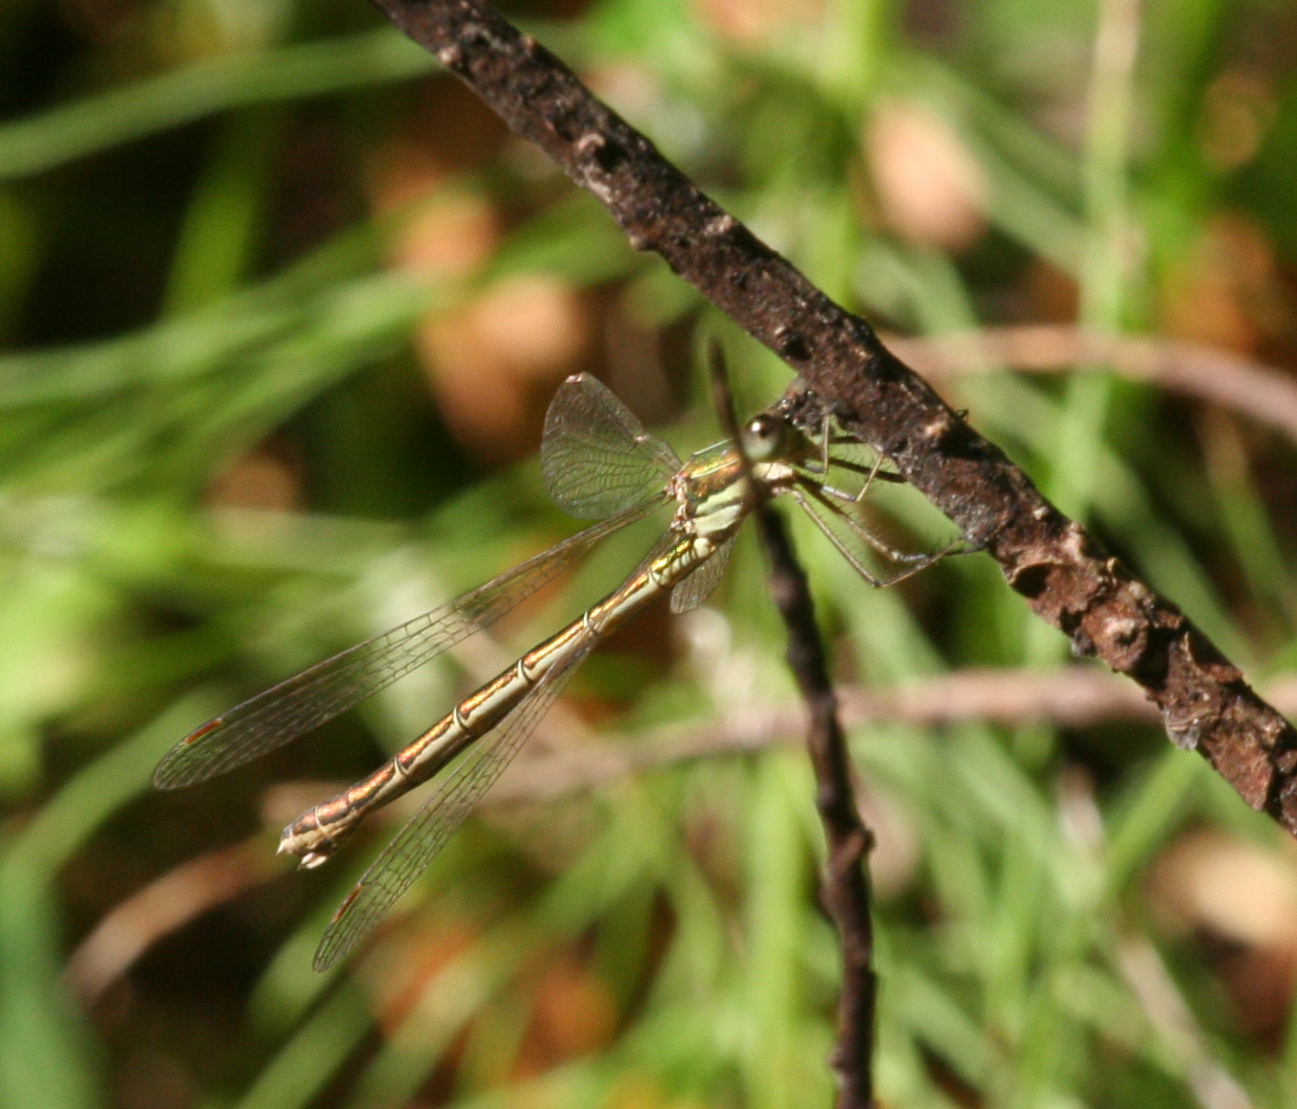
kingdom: Animalia
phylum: Arthropoda
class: Insecta
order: Odonata
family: Lestidae
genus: Lestes
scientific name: Lestes virens
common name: Small emerald spreadwing
